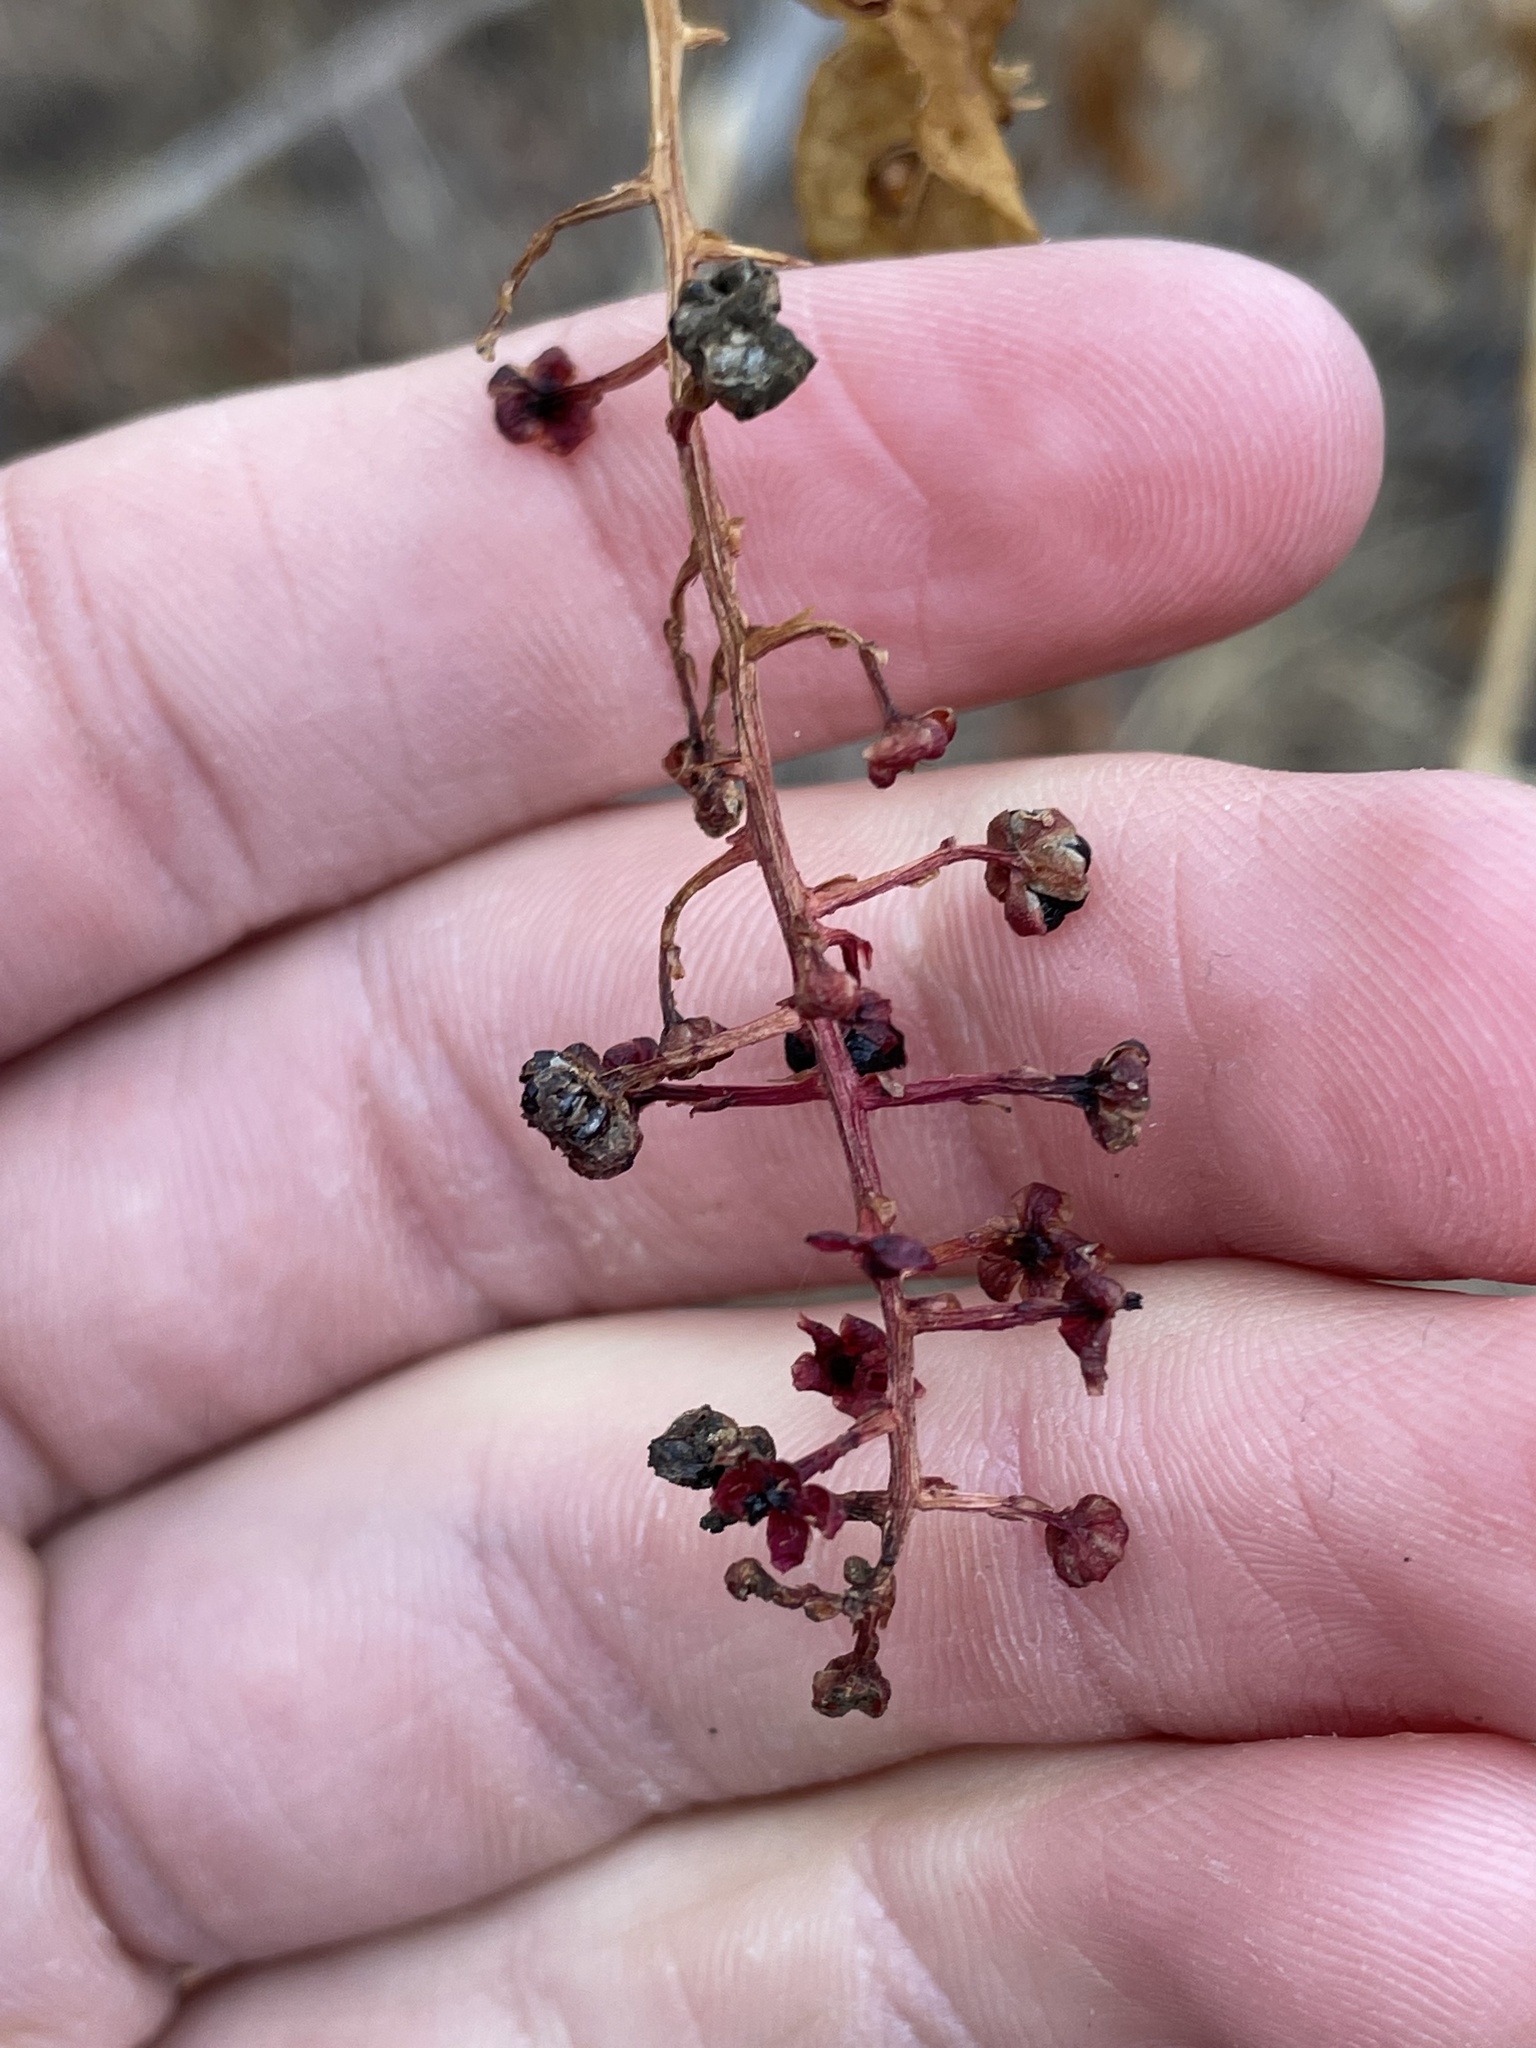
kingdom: Plantae
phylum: Tracheophyta
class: Magnoliopsida
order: Caryophyllales
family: Phytolaccaceae
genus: Phytolacca
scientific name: Phytolacca americana
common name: American pokeweed
